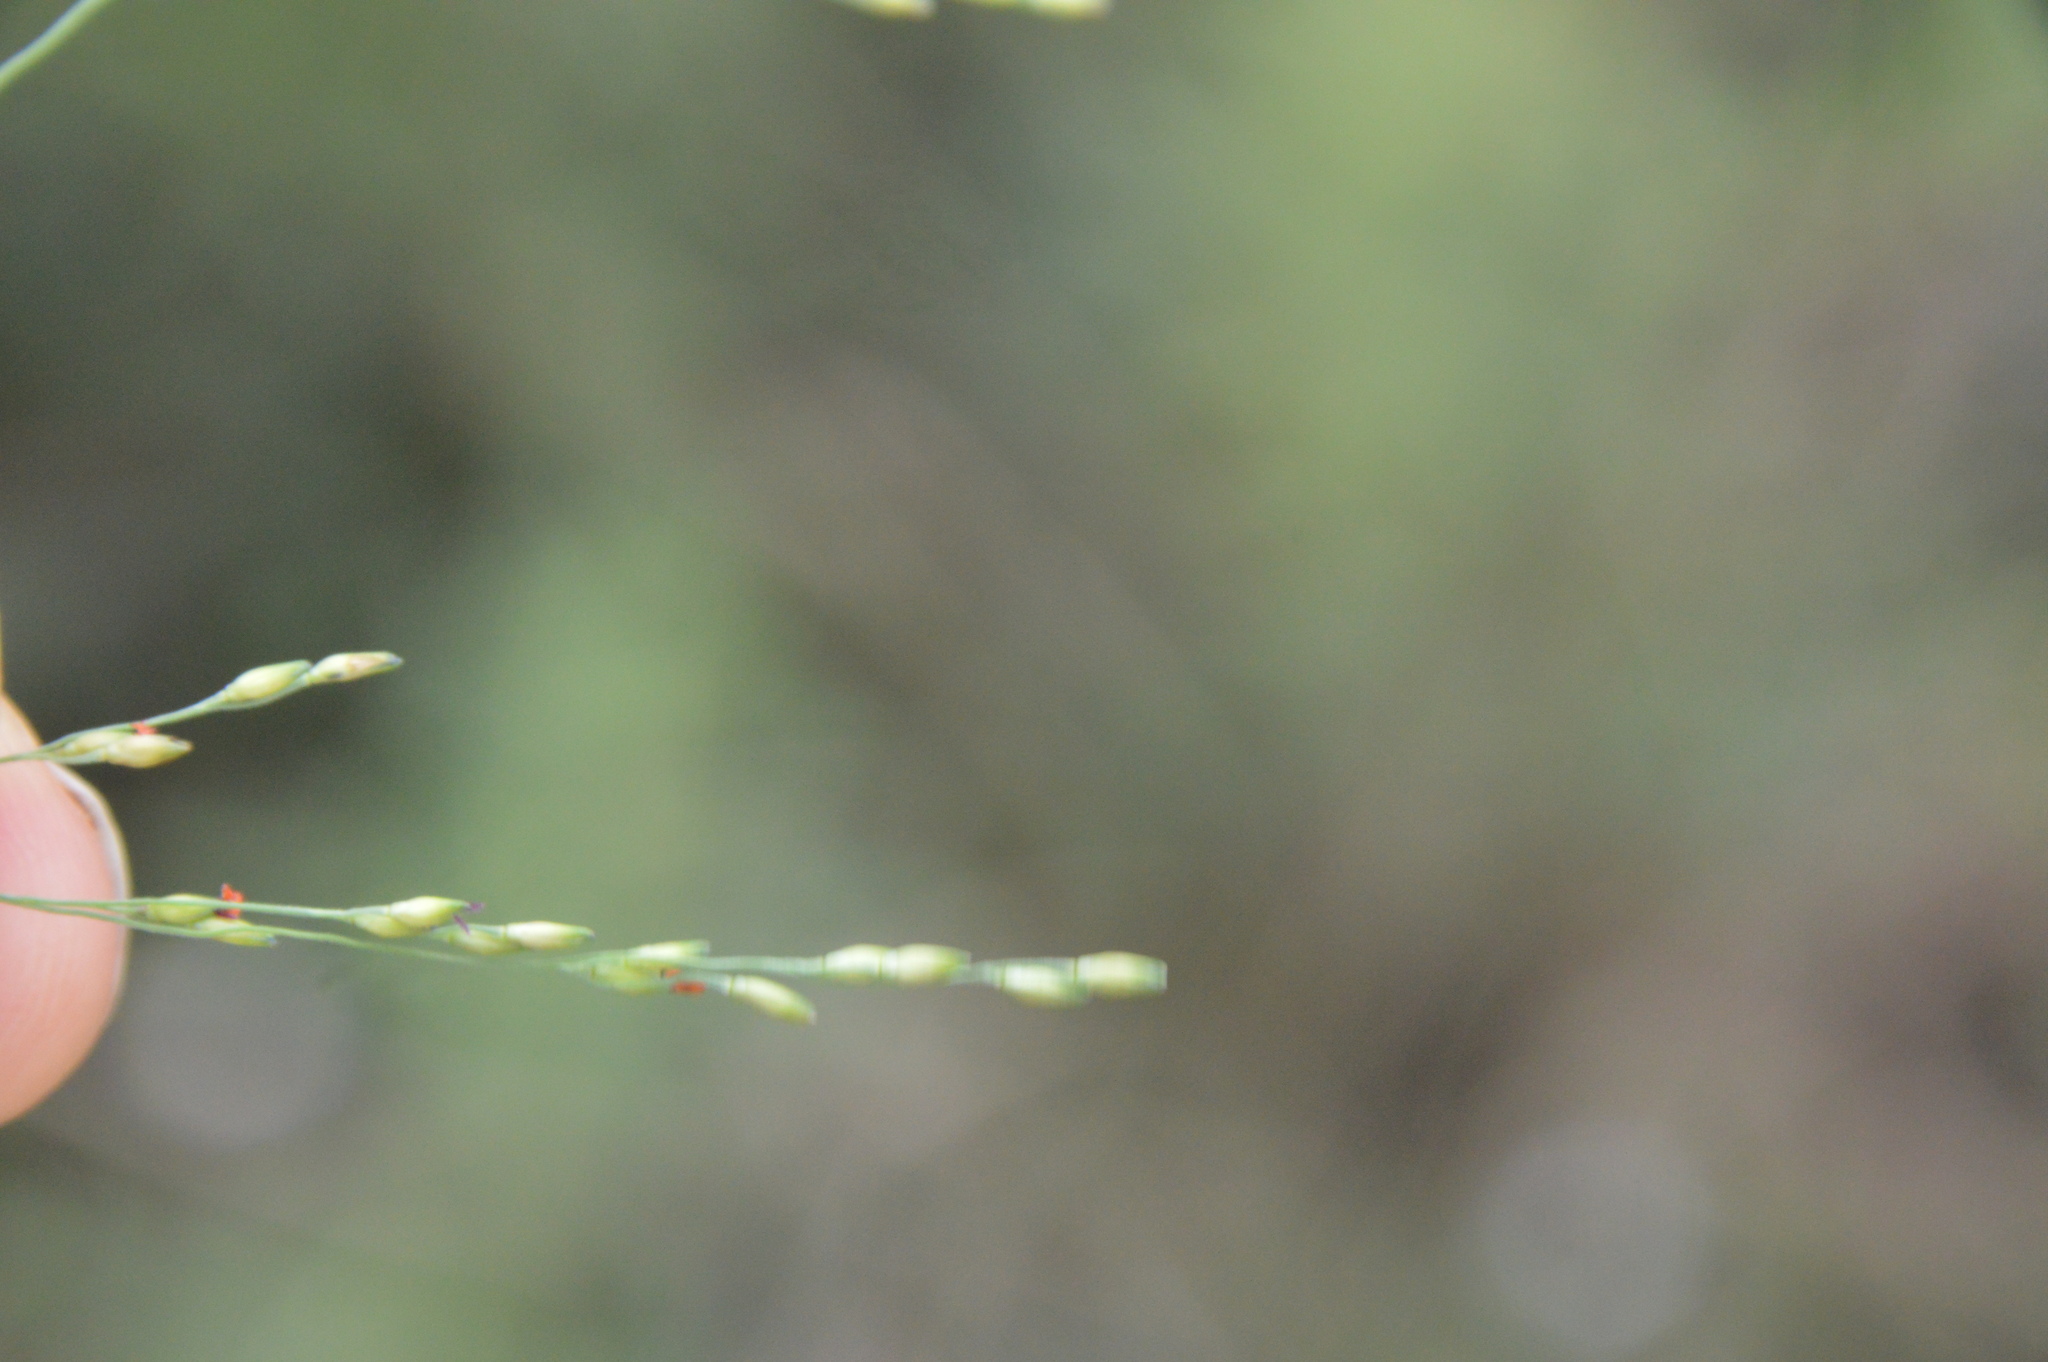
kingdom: Plantae
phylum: Tracheophyta
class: Liliopsida
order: Poales
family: Poaceae
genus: Panicum
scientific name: Panicum dichotomiflorum
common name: Autumn millet
